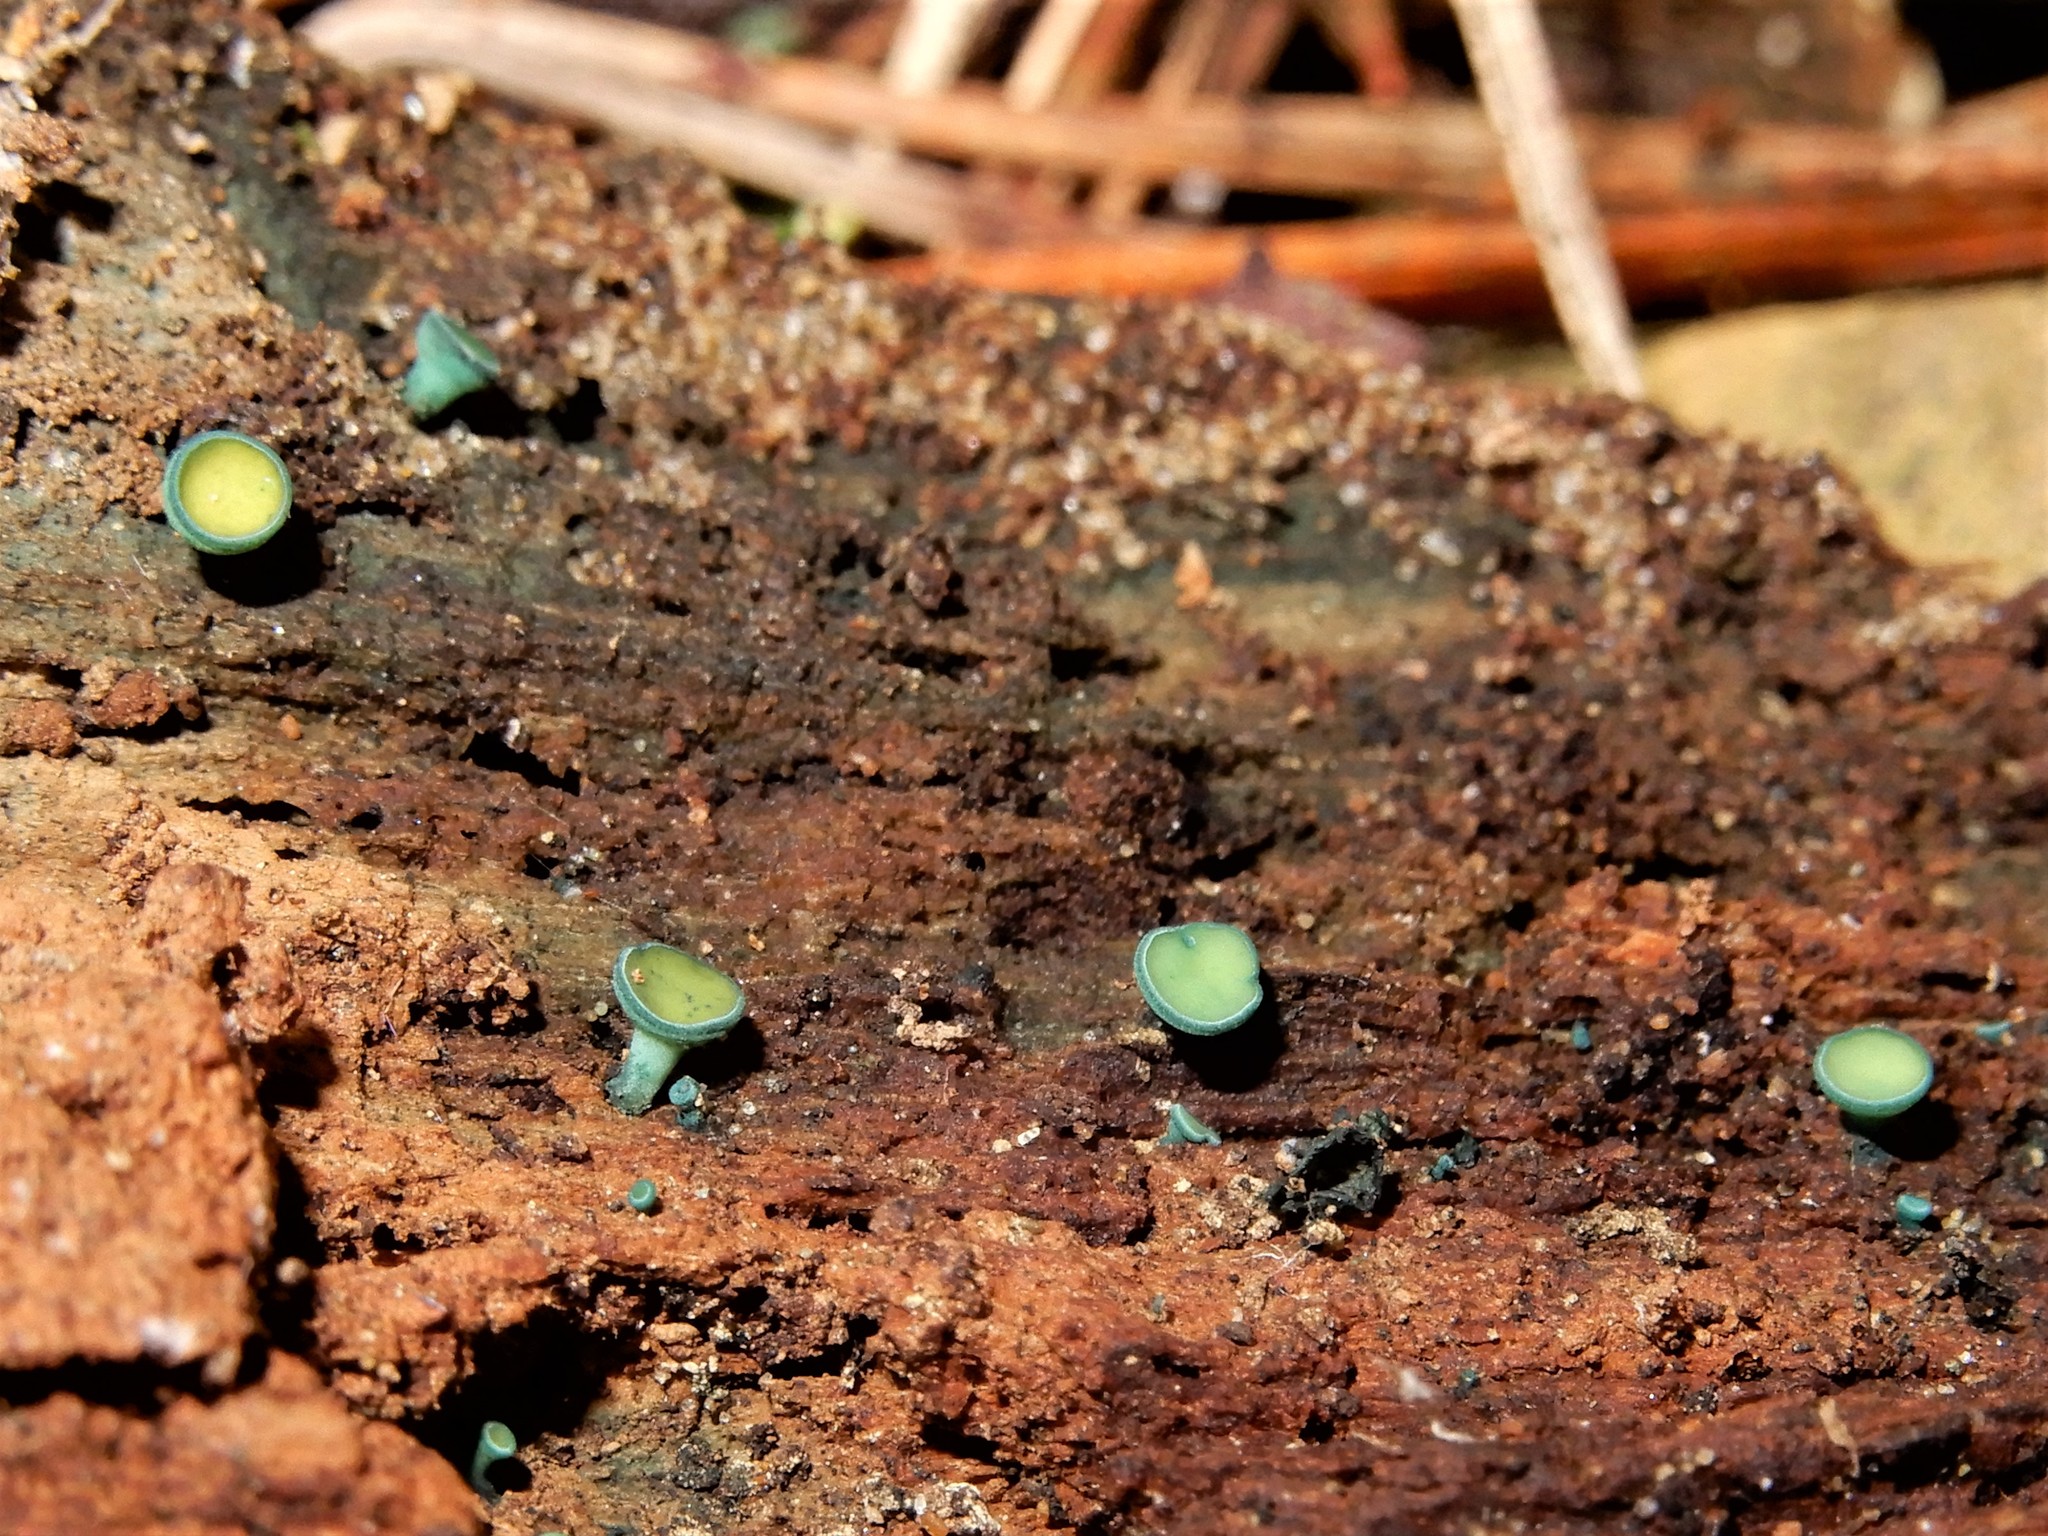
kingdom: Fungi
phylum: Ascomycota
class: Leotiomycetes
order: Helotiales
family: Chlorociboriaceae
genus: Chlorociboria
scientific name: Chlorociboria
